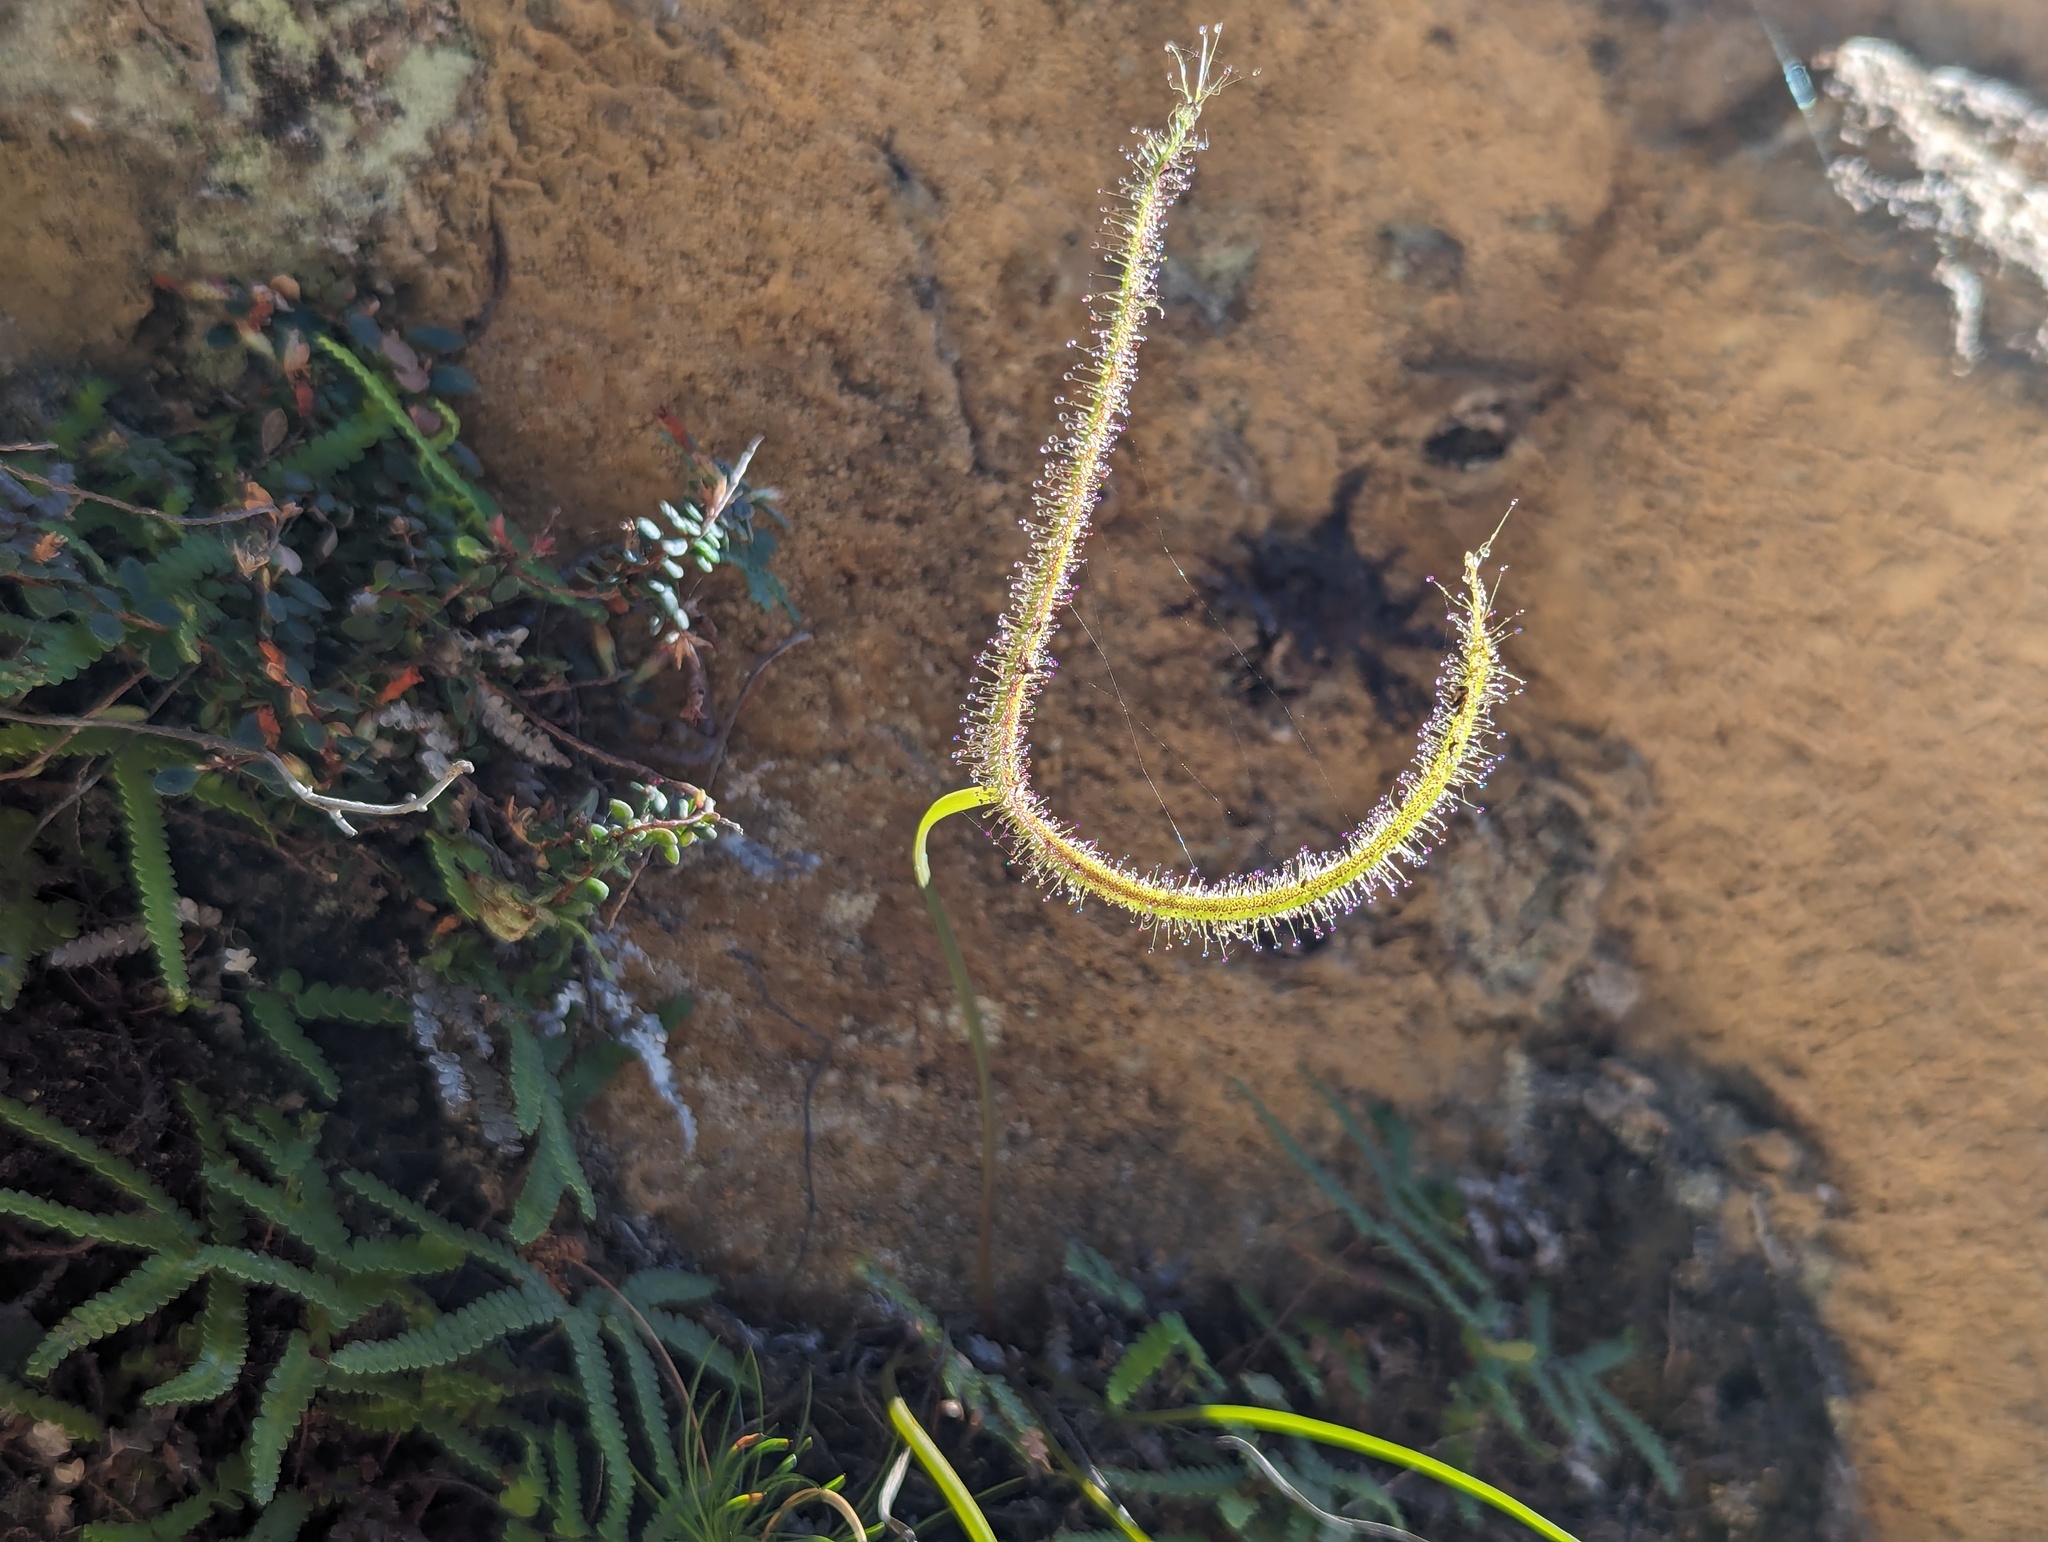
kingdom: Plantae
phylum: Tracheophyta
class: Magnoliopsida
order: Caryophyllales
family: Droseraceae
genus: Drosera
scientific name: Drosera binata
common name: Forked sundew
